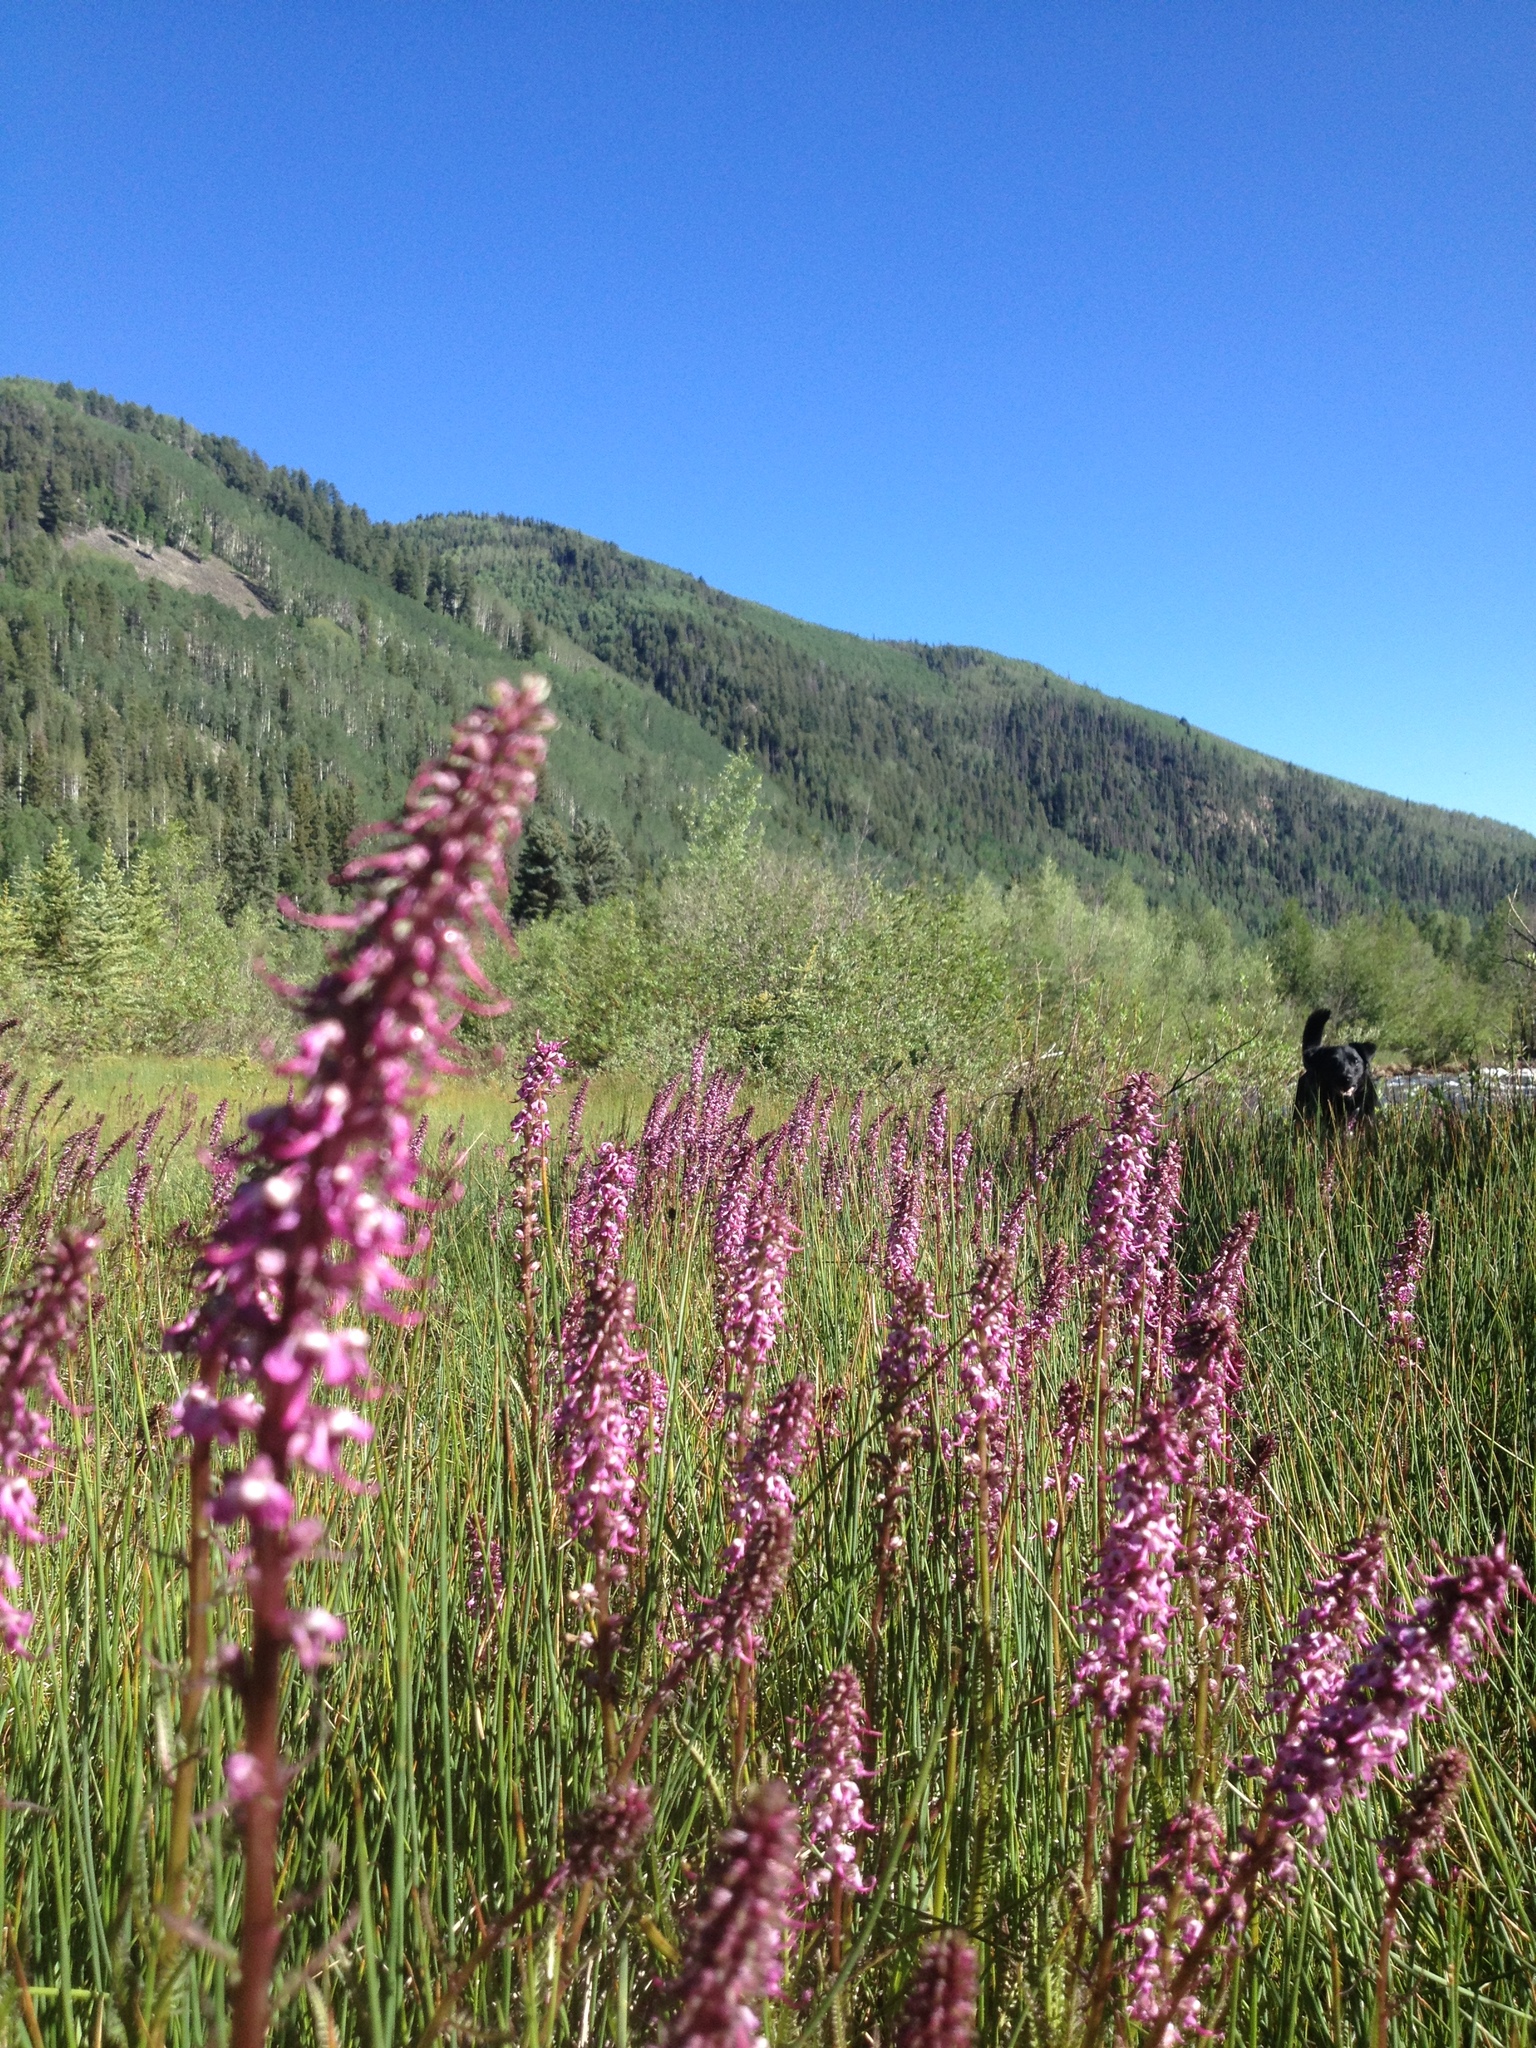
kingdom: Plantae
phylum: Tracheophyta
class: Magnoliopsida
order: Lamiales
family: Orobanchaceae
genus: Pedicularis
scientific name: Pedicularis groenlandica
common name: Elephant's-head
